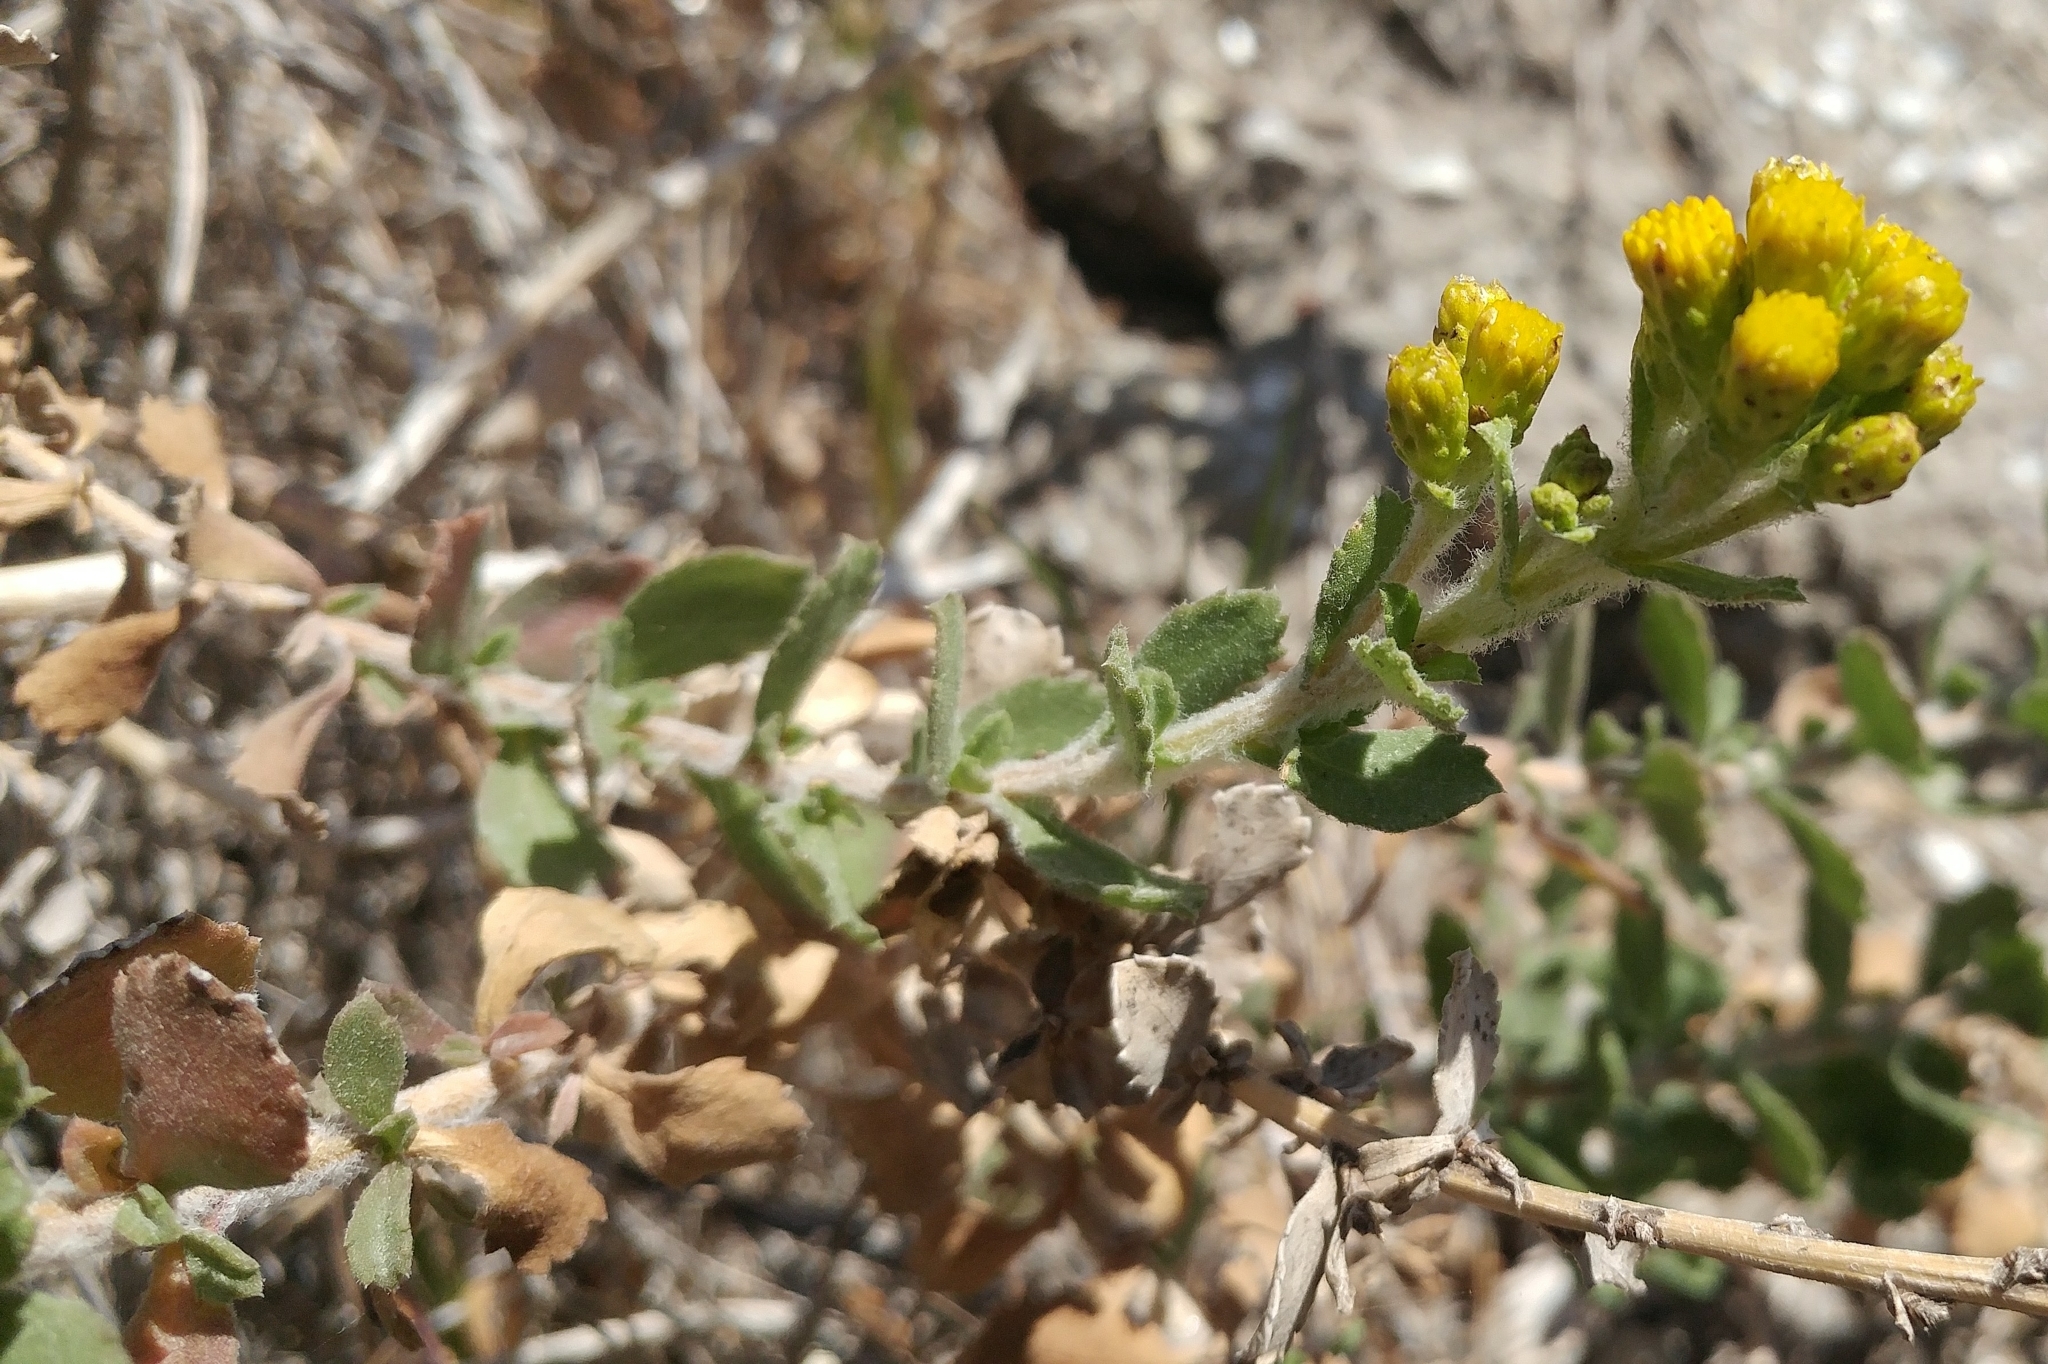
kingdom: Plantae
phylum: Tracheophyta
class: Magnoliopsida
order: Asterales
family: Asteraceae
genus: Isocoma
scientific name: Isocoma menziesii
